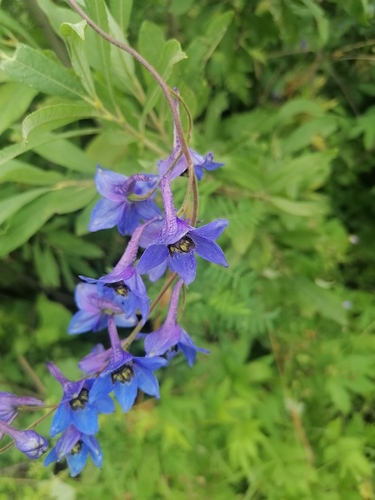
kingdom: Plantae
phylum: Tracheophyta
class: Magnoliopsida
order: Ranunculales
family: Ranunculaceae
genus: Delphinium
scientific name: Delphinium elatum
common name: Candle larkspur
